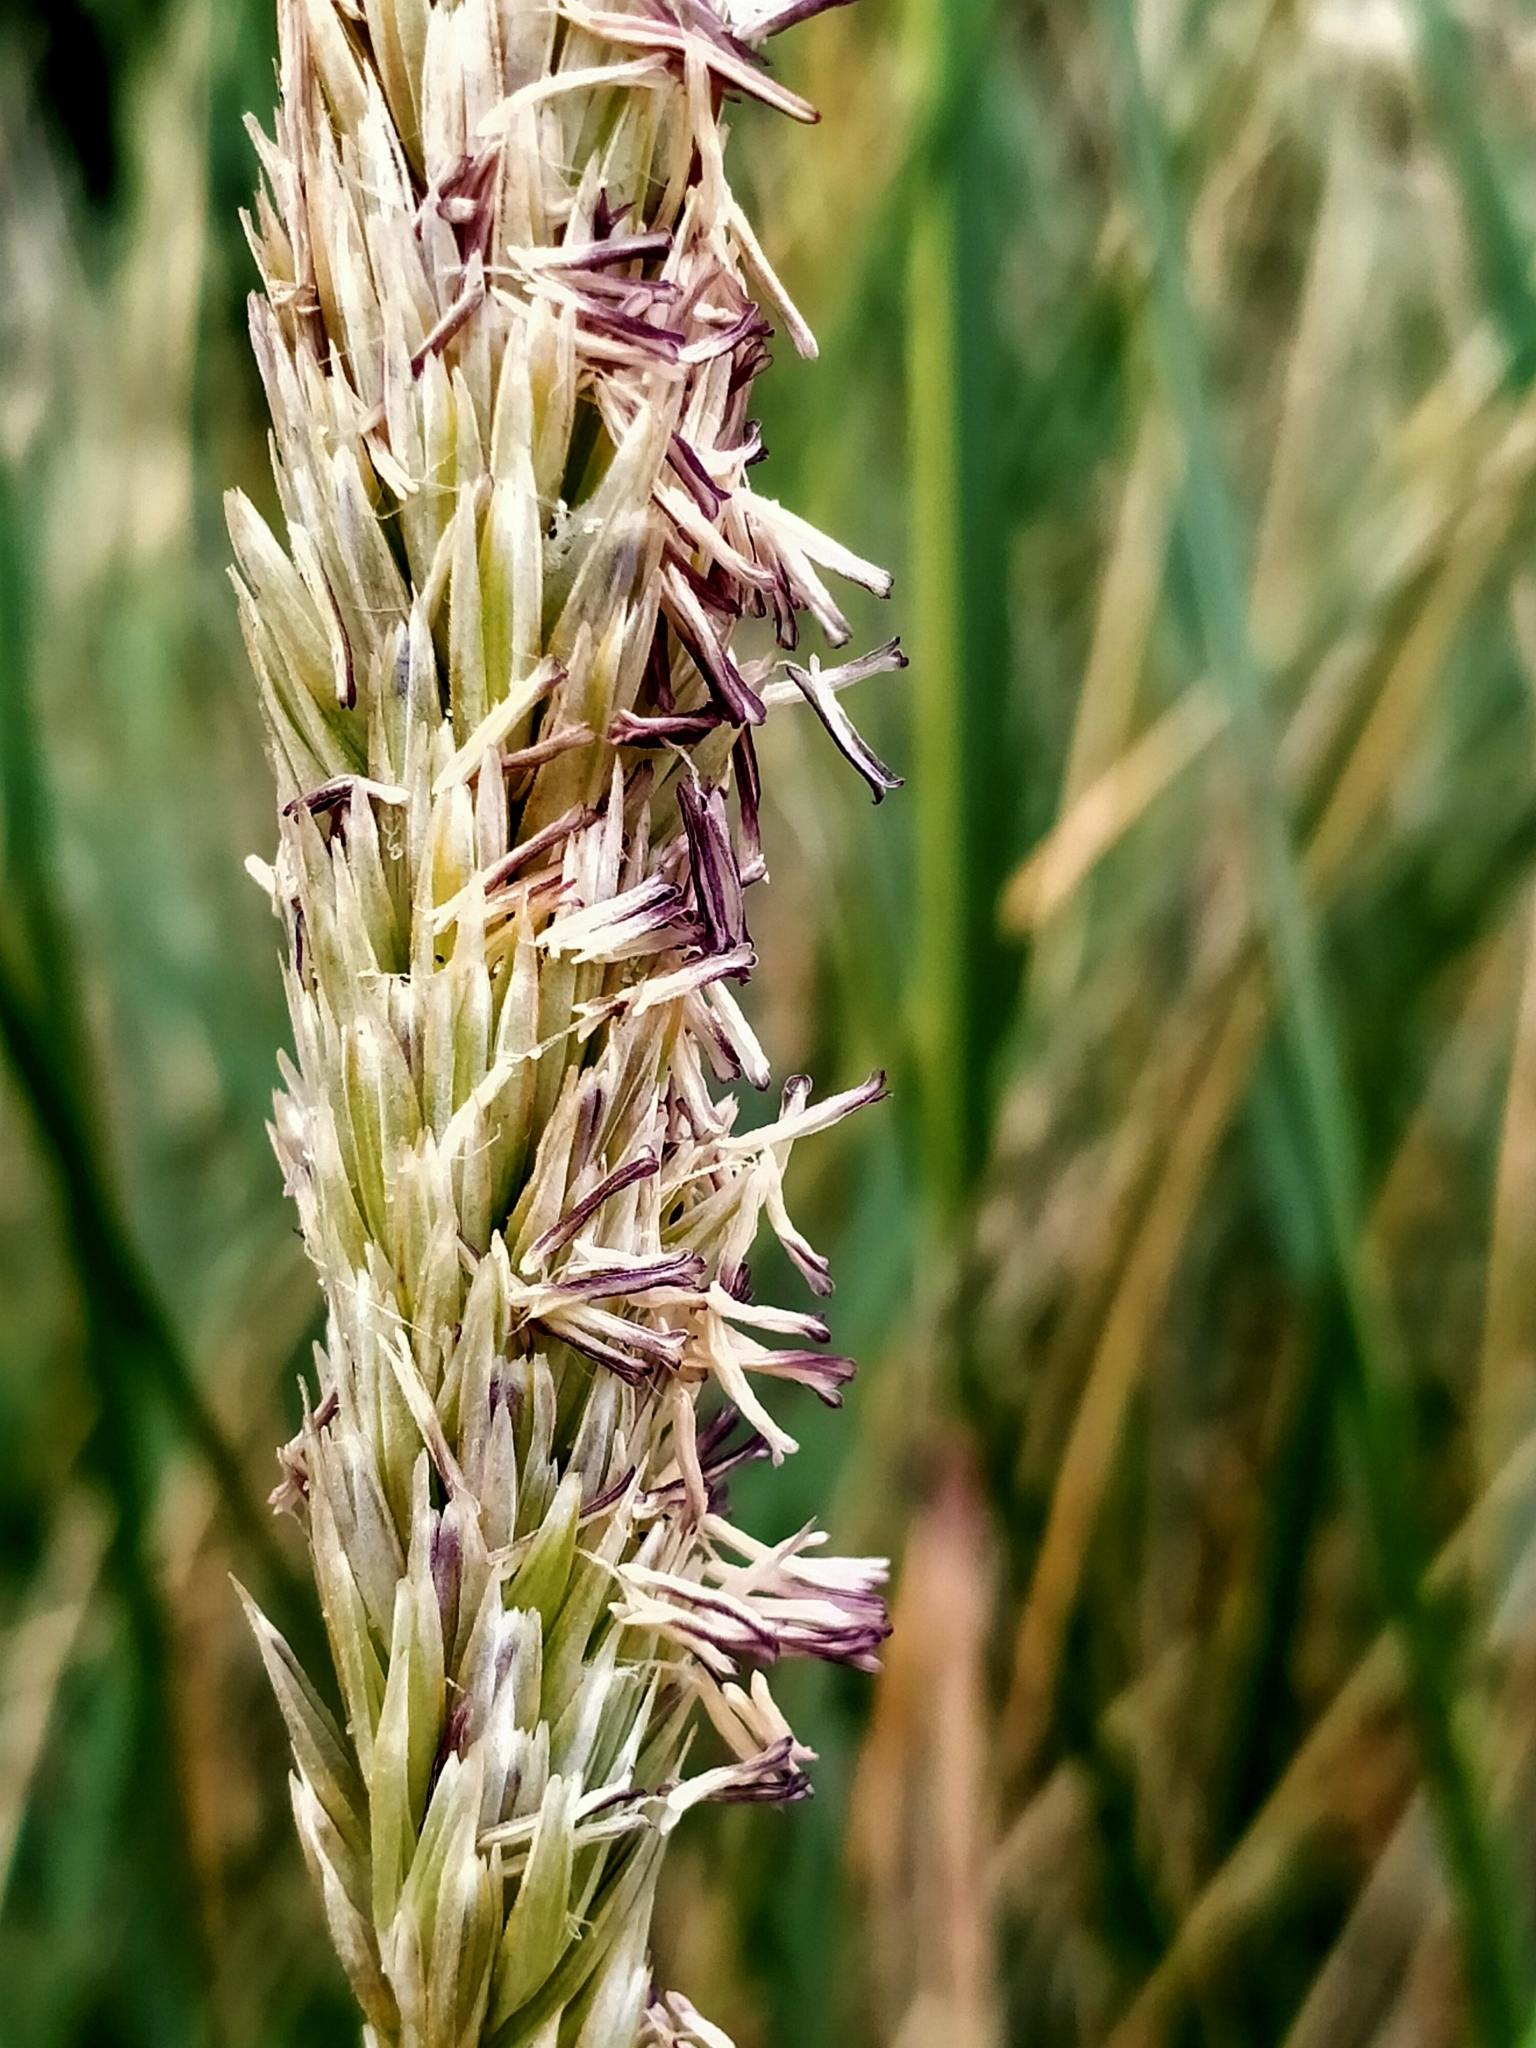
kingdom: Plantae
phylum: Tracheophyta
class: Liliopsida
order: Poales
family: Poaceae
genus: Calamagrostis
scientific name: Calamagrostis arenaria
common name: European beachgrass
